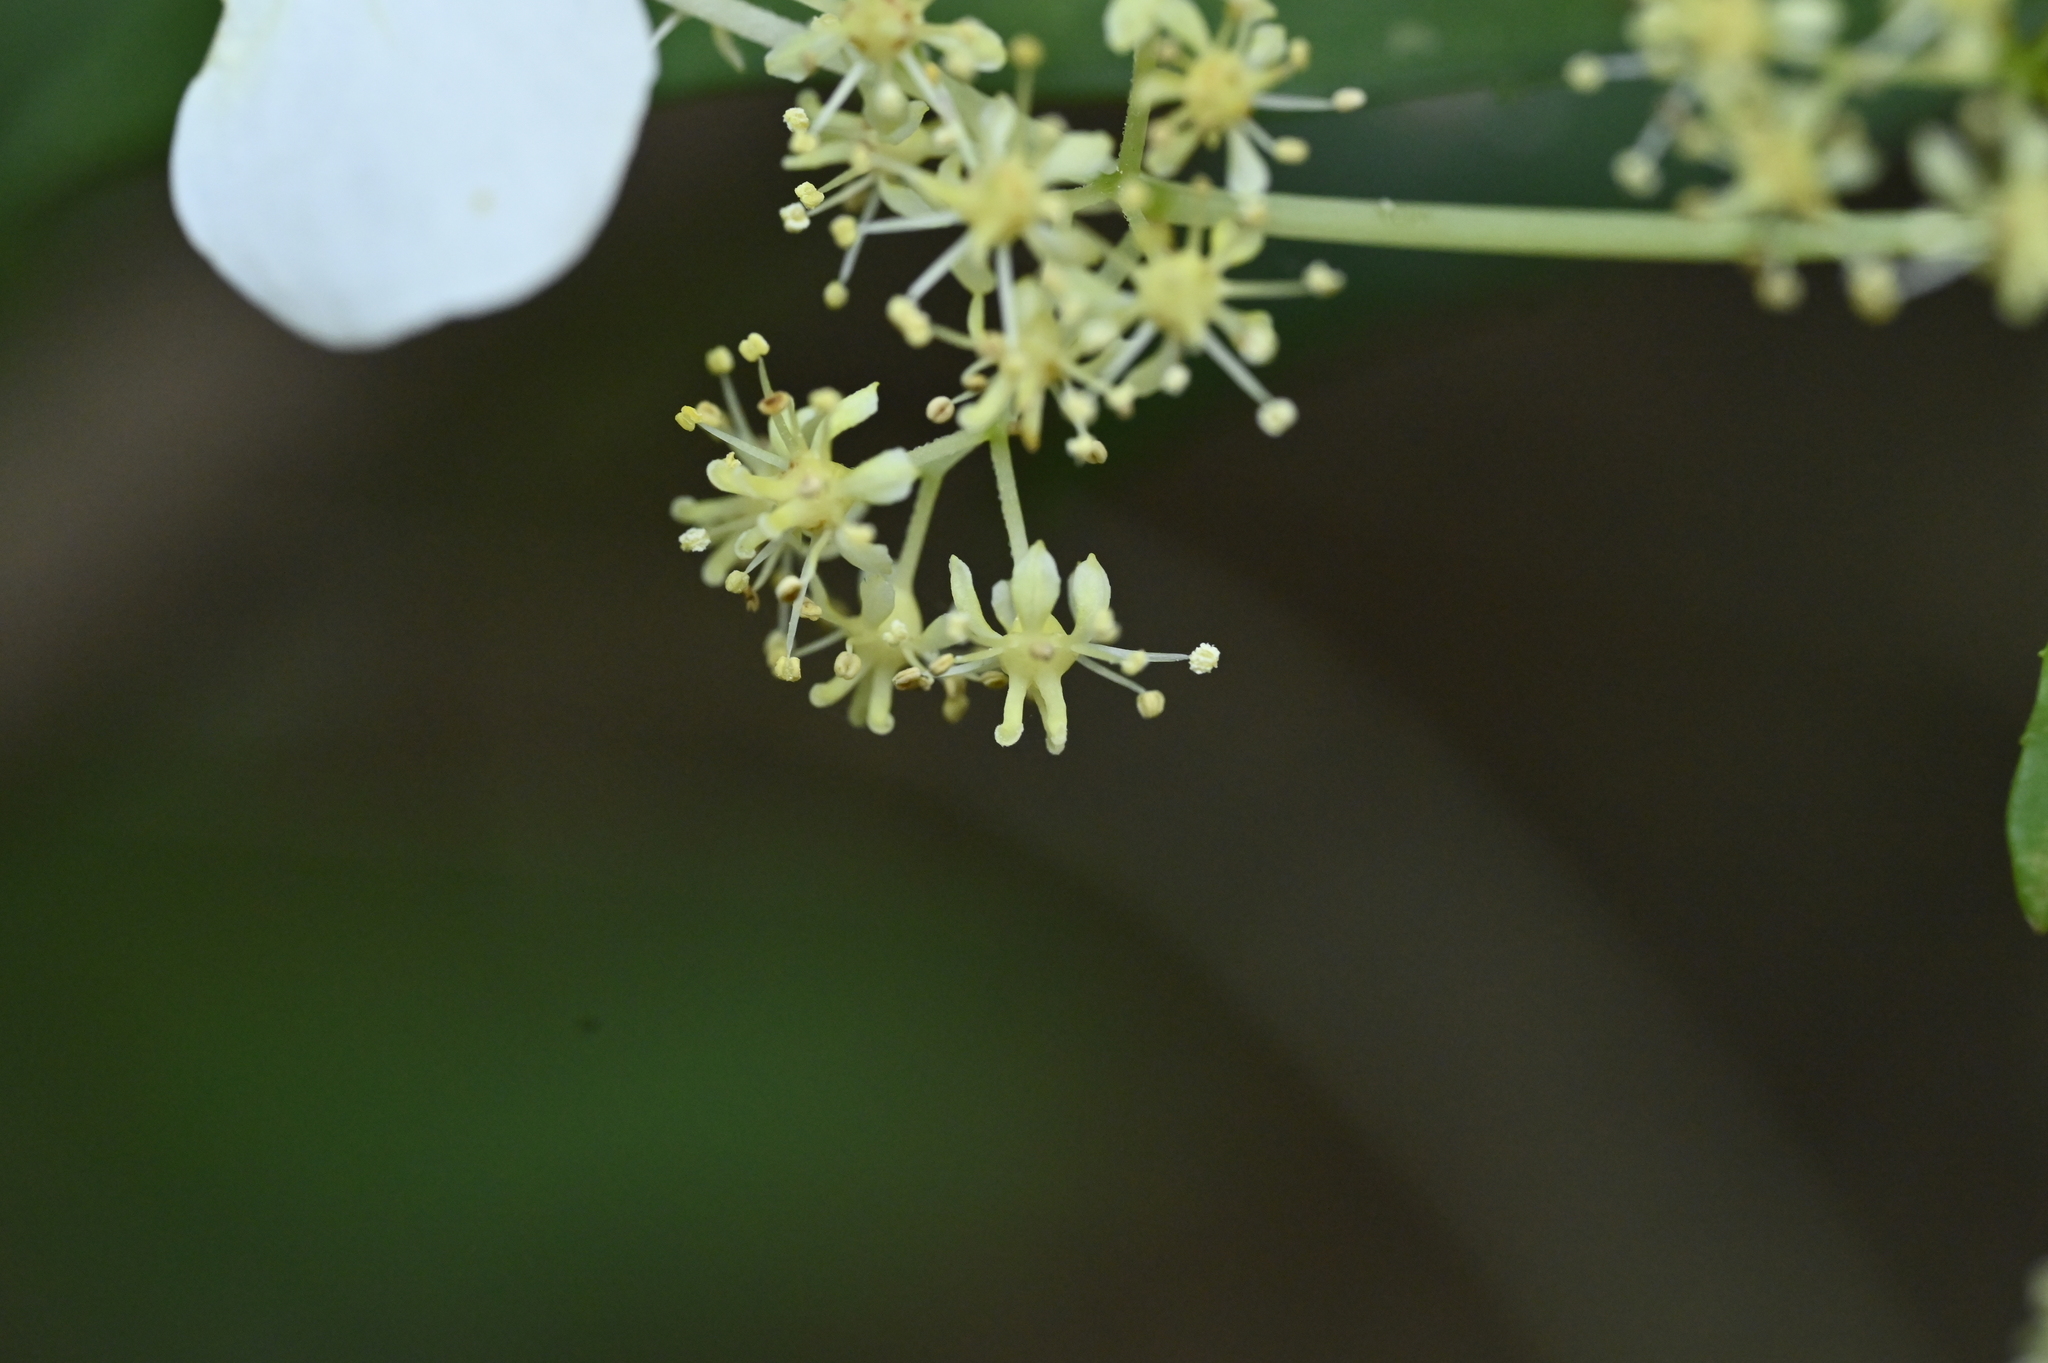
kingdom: Plantae
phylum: Tracheophyta
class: Magnoliopsida
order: Cornales
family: Hydrangeaceae
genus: Hydrangea
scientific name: Hydrangea chinensis
